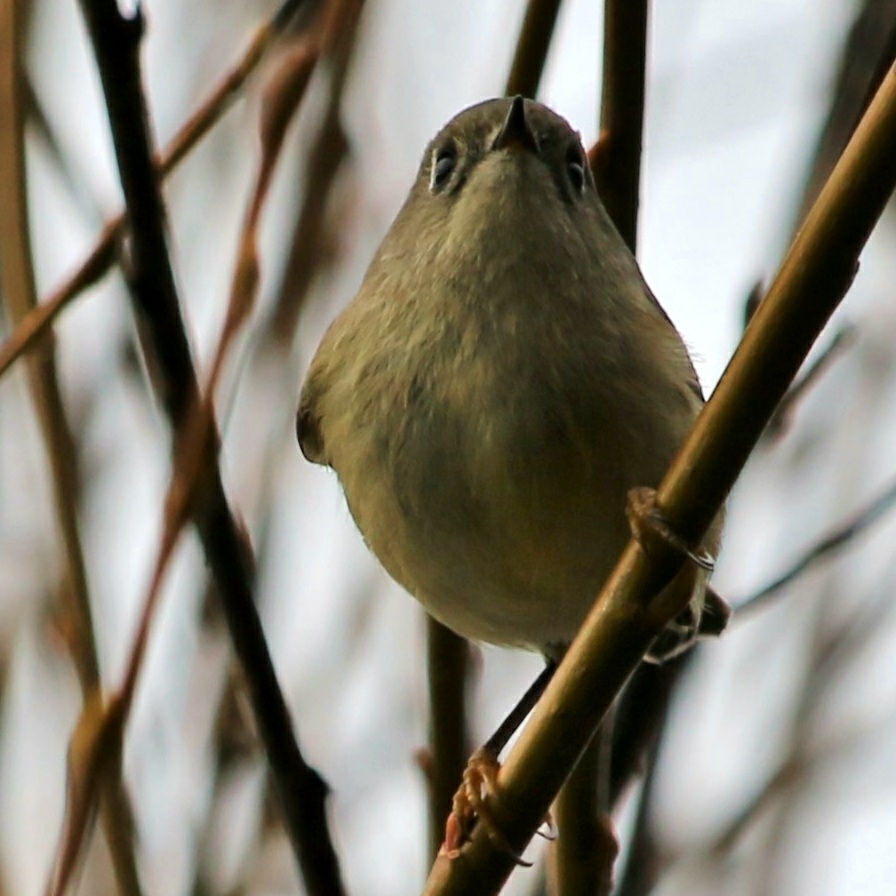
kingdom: Animalia
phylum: Chordata
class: Aves
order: Passeriformes
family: Regulidae
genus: Regulus
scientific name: Regulus calendula
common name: Ruby-crowned kinglet
